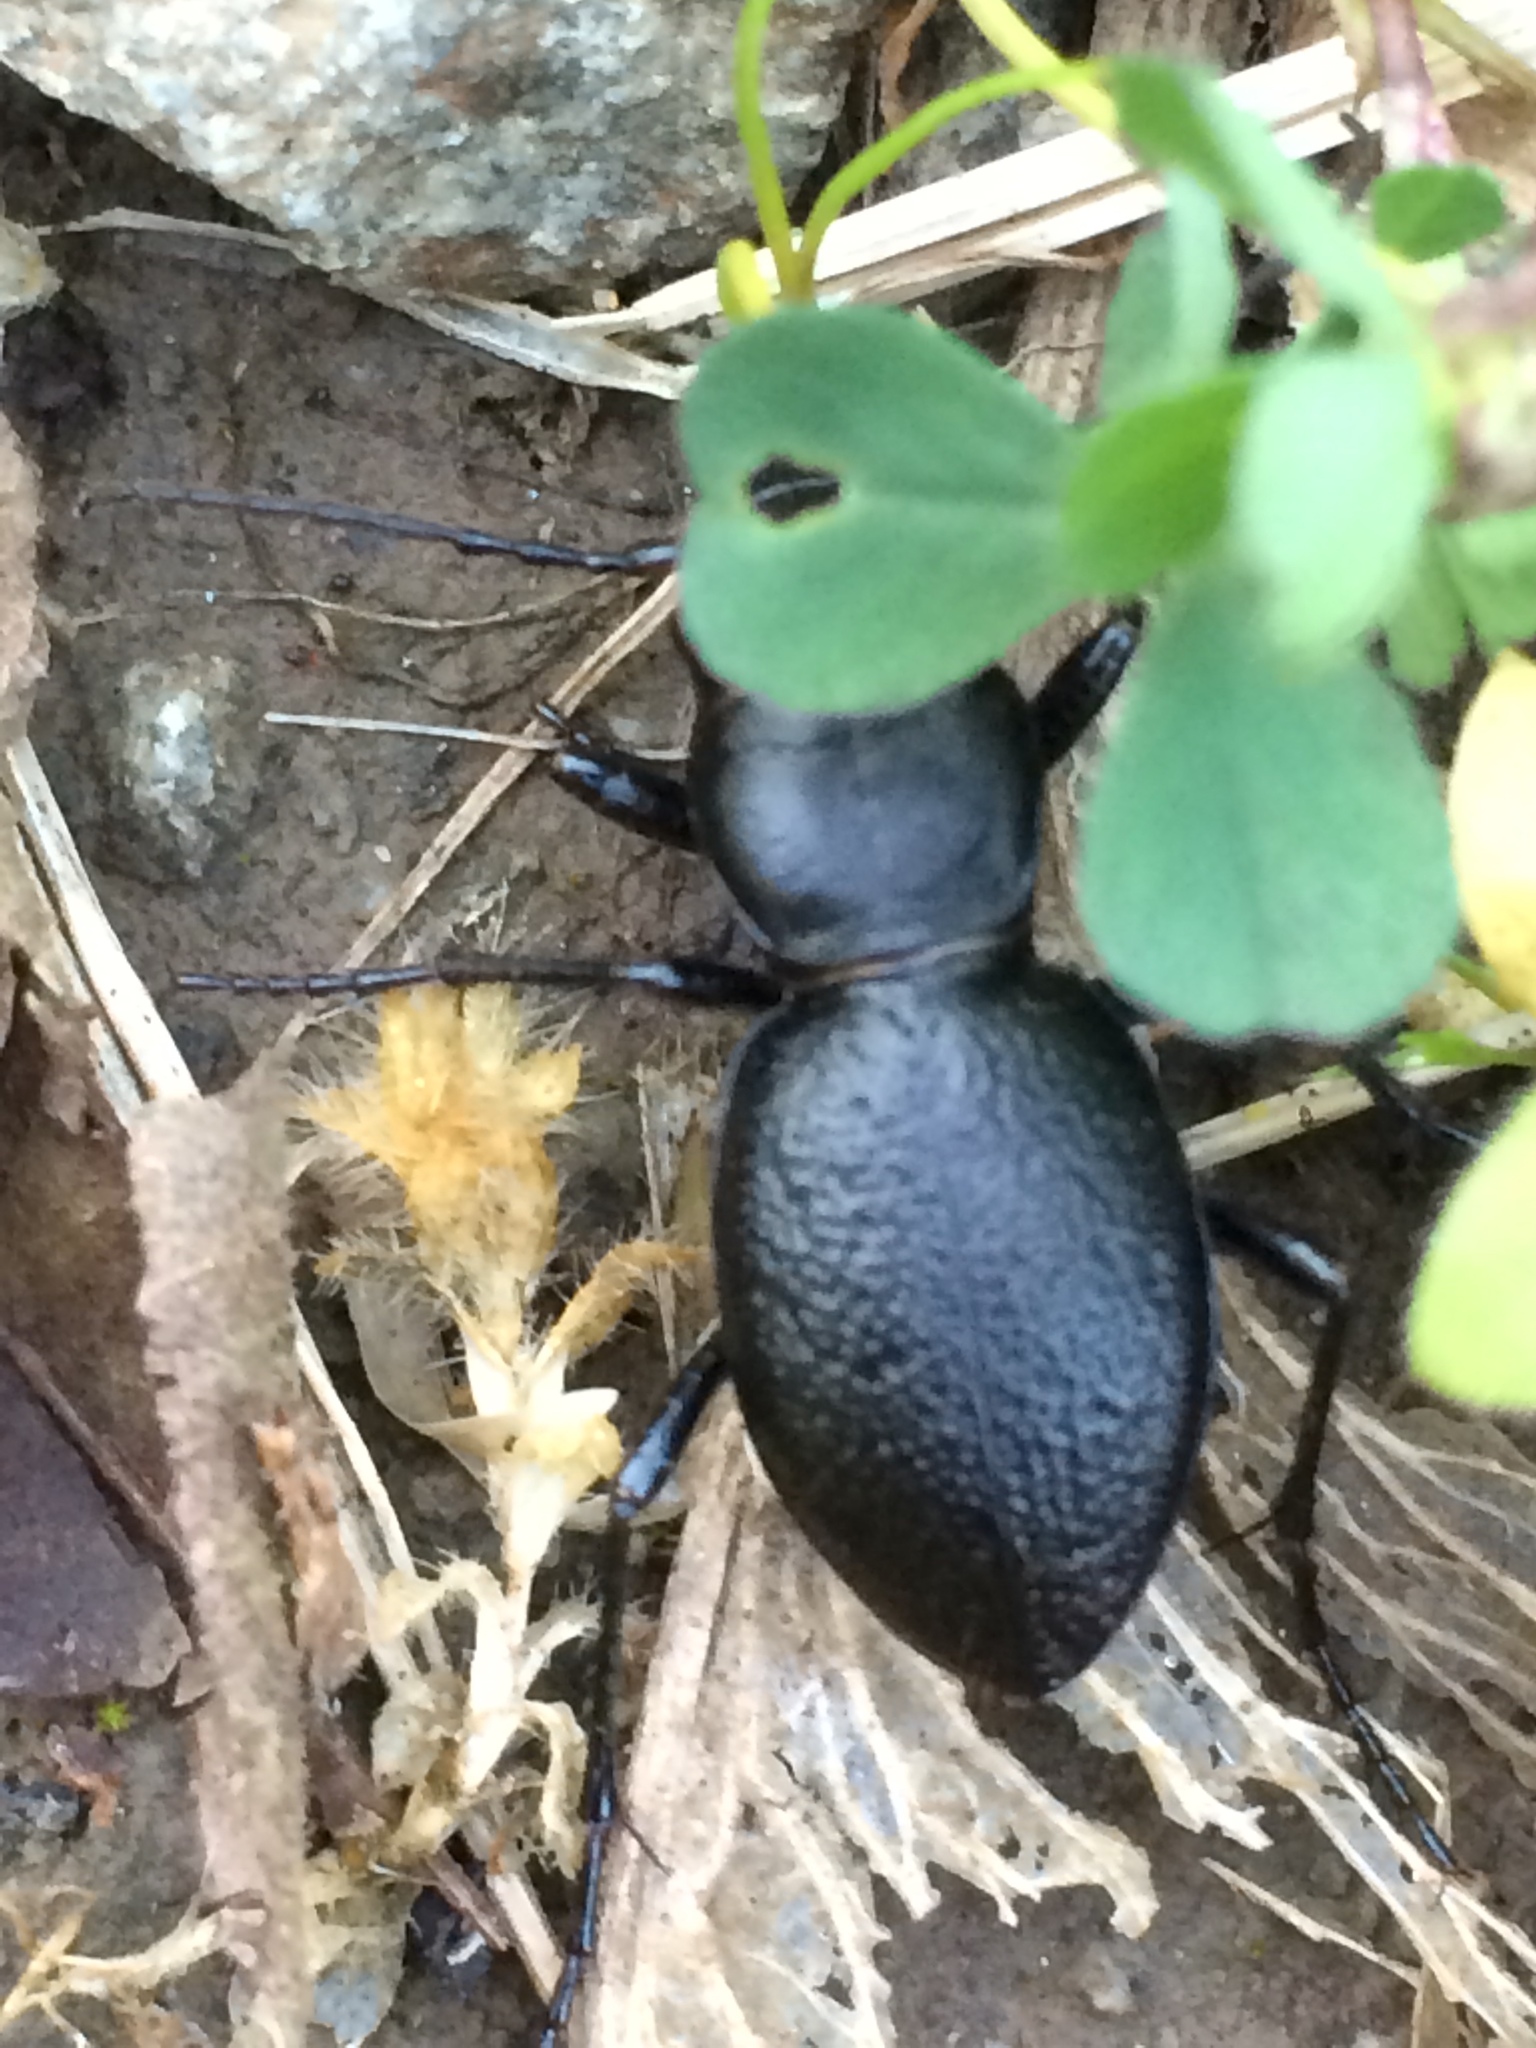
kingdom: Animalia
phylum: Arthropoda
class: Insecta
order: Coleoptera
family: Carabidae
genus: Omus
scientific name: Omus audouini
